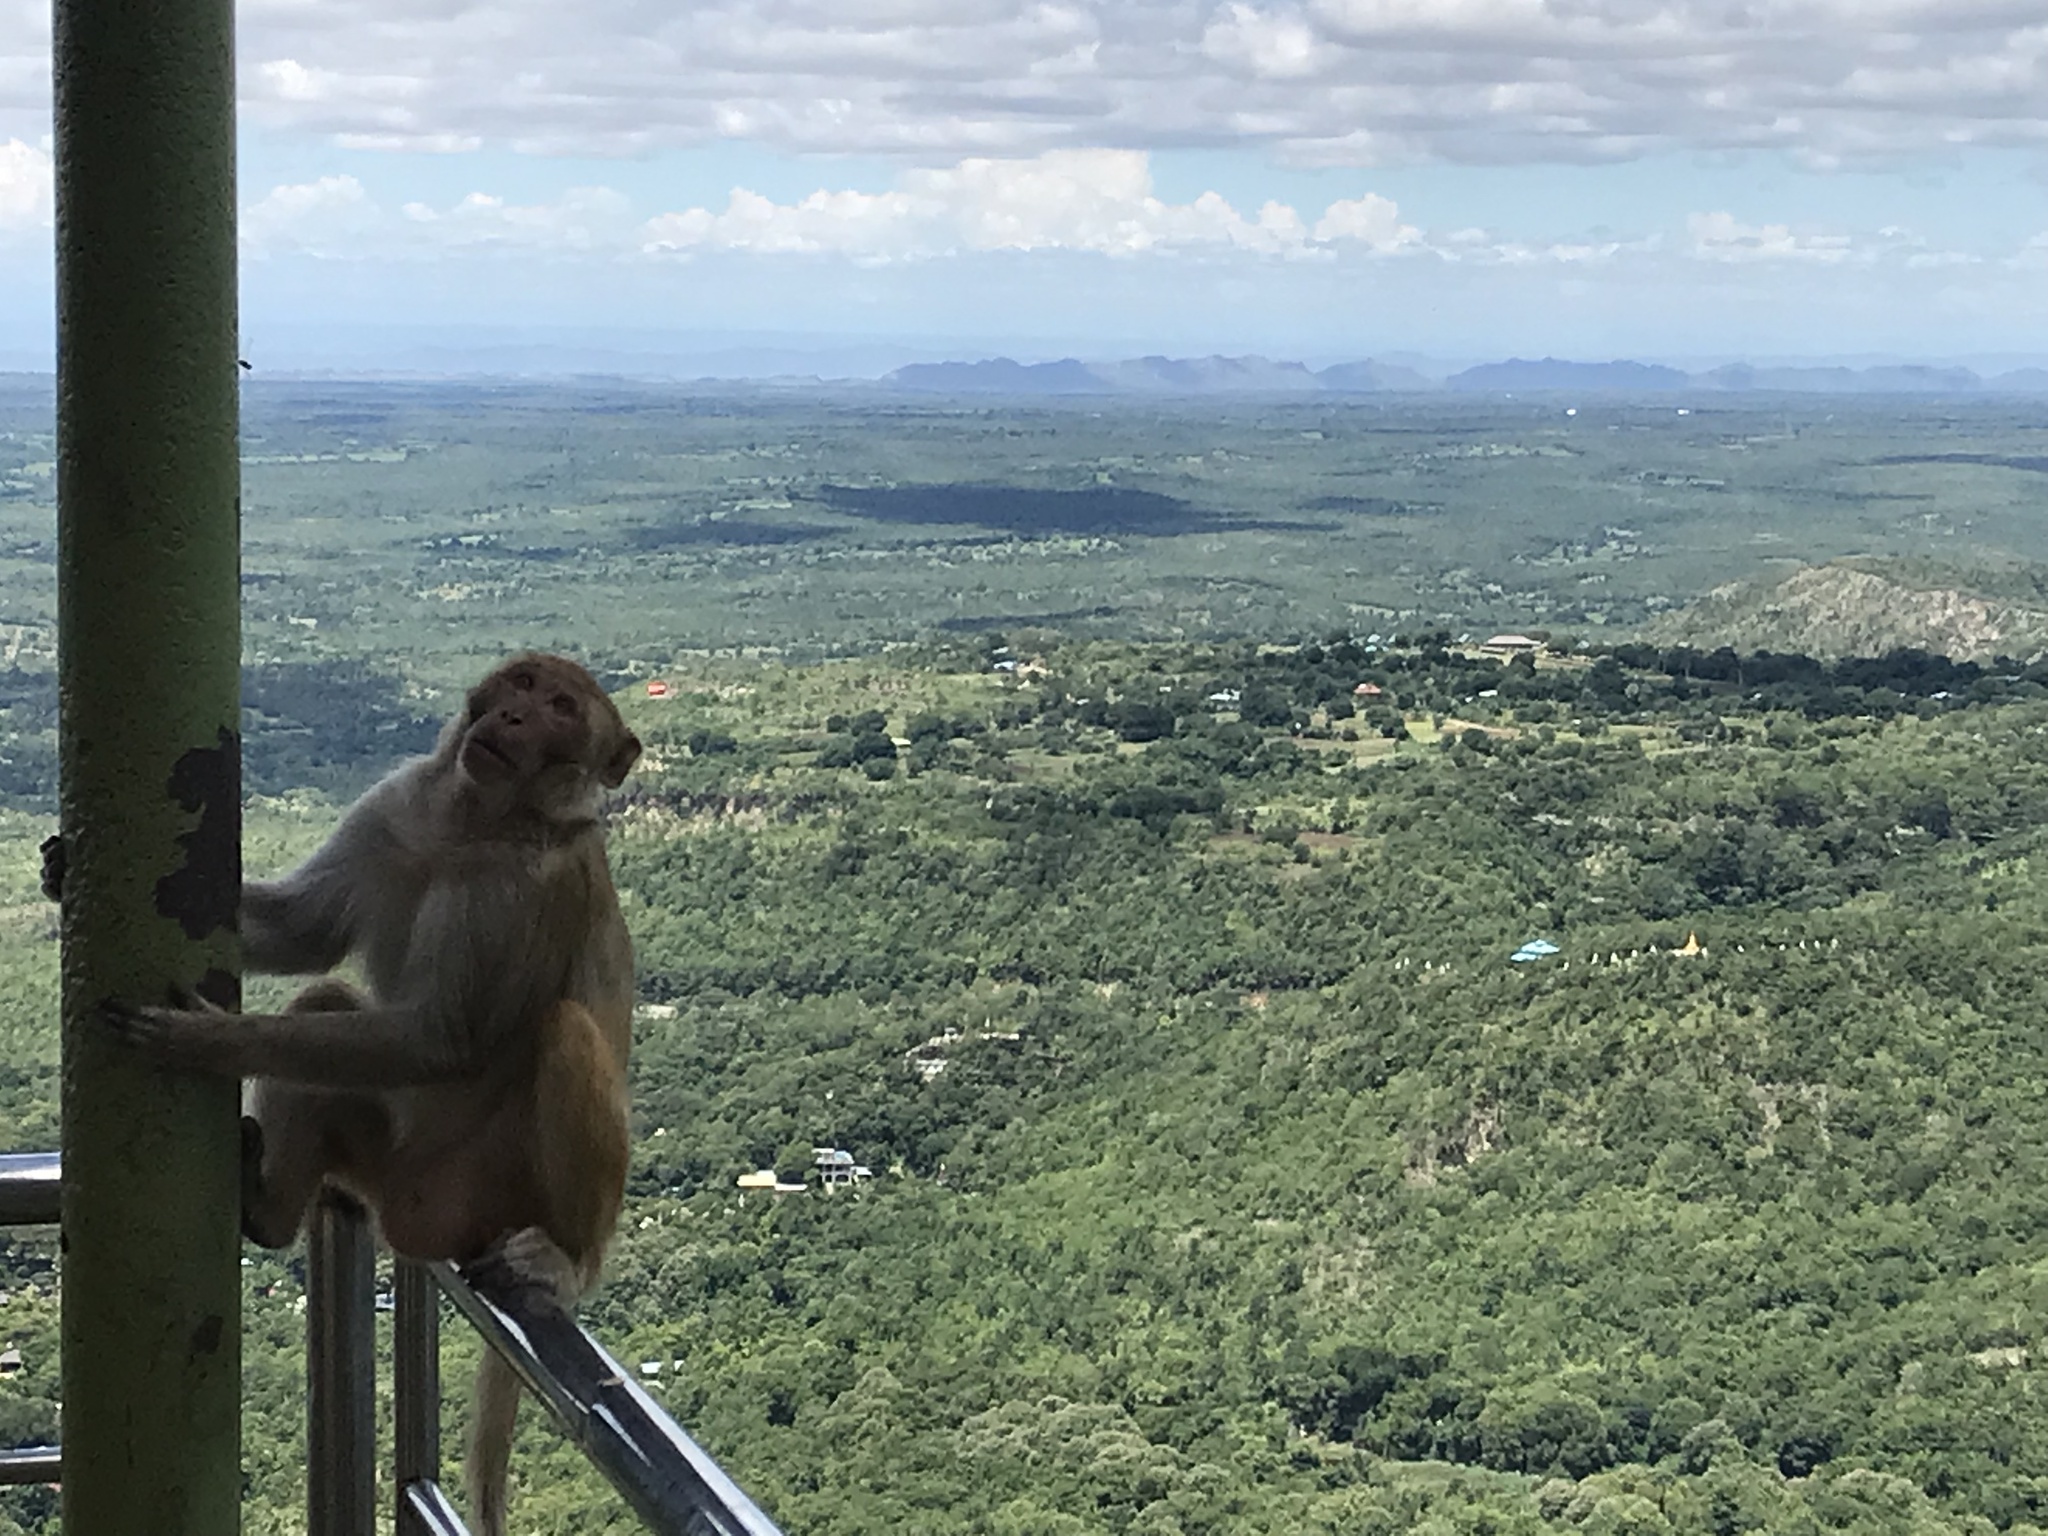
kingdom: Animalia
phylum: Chordata
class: Mammalia
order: Primates
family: Cercopithecidae
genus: Macaca
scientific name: Macaca mulatta
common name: Rhesus monkey
